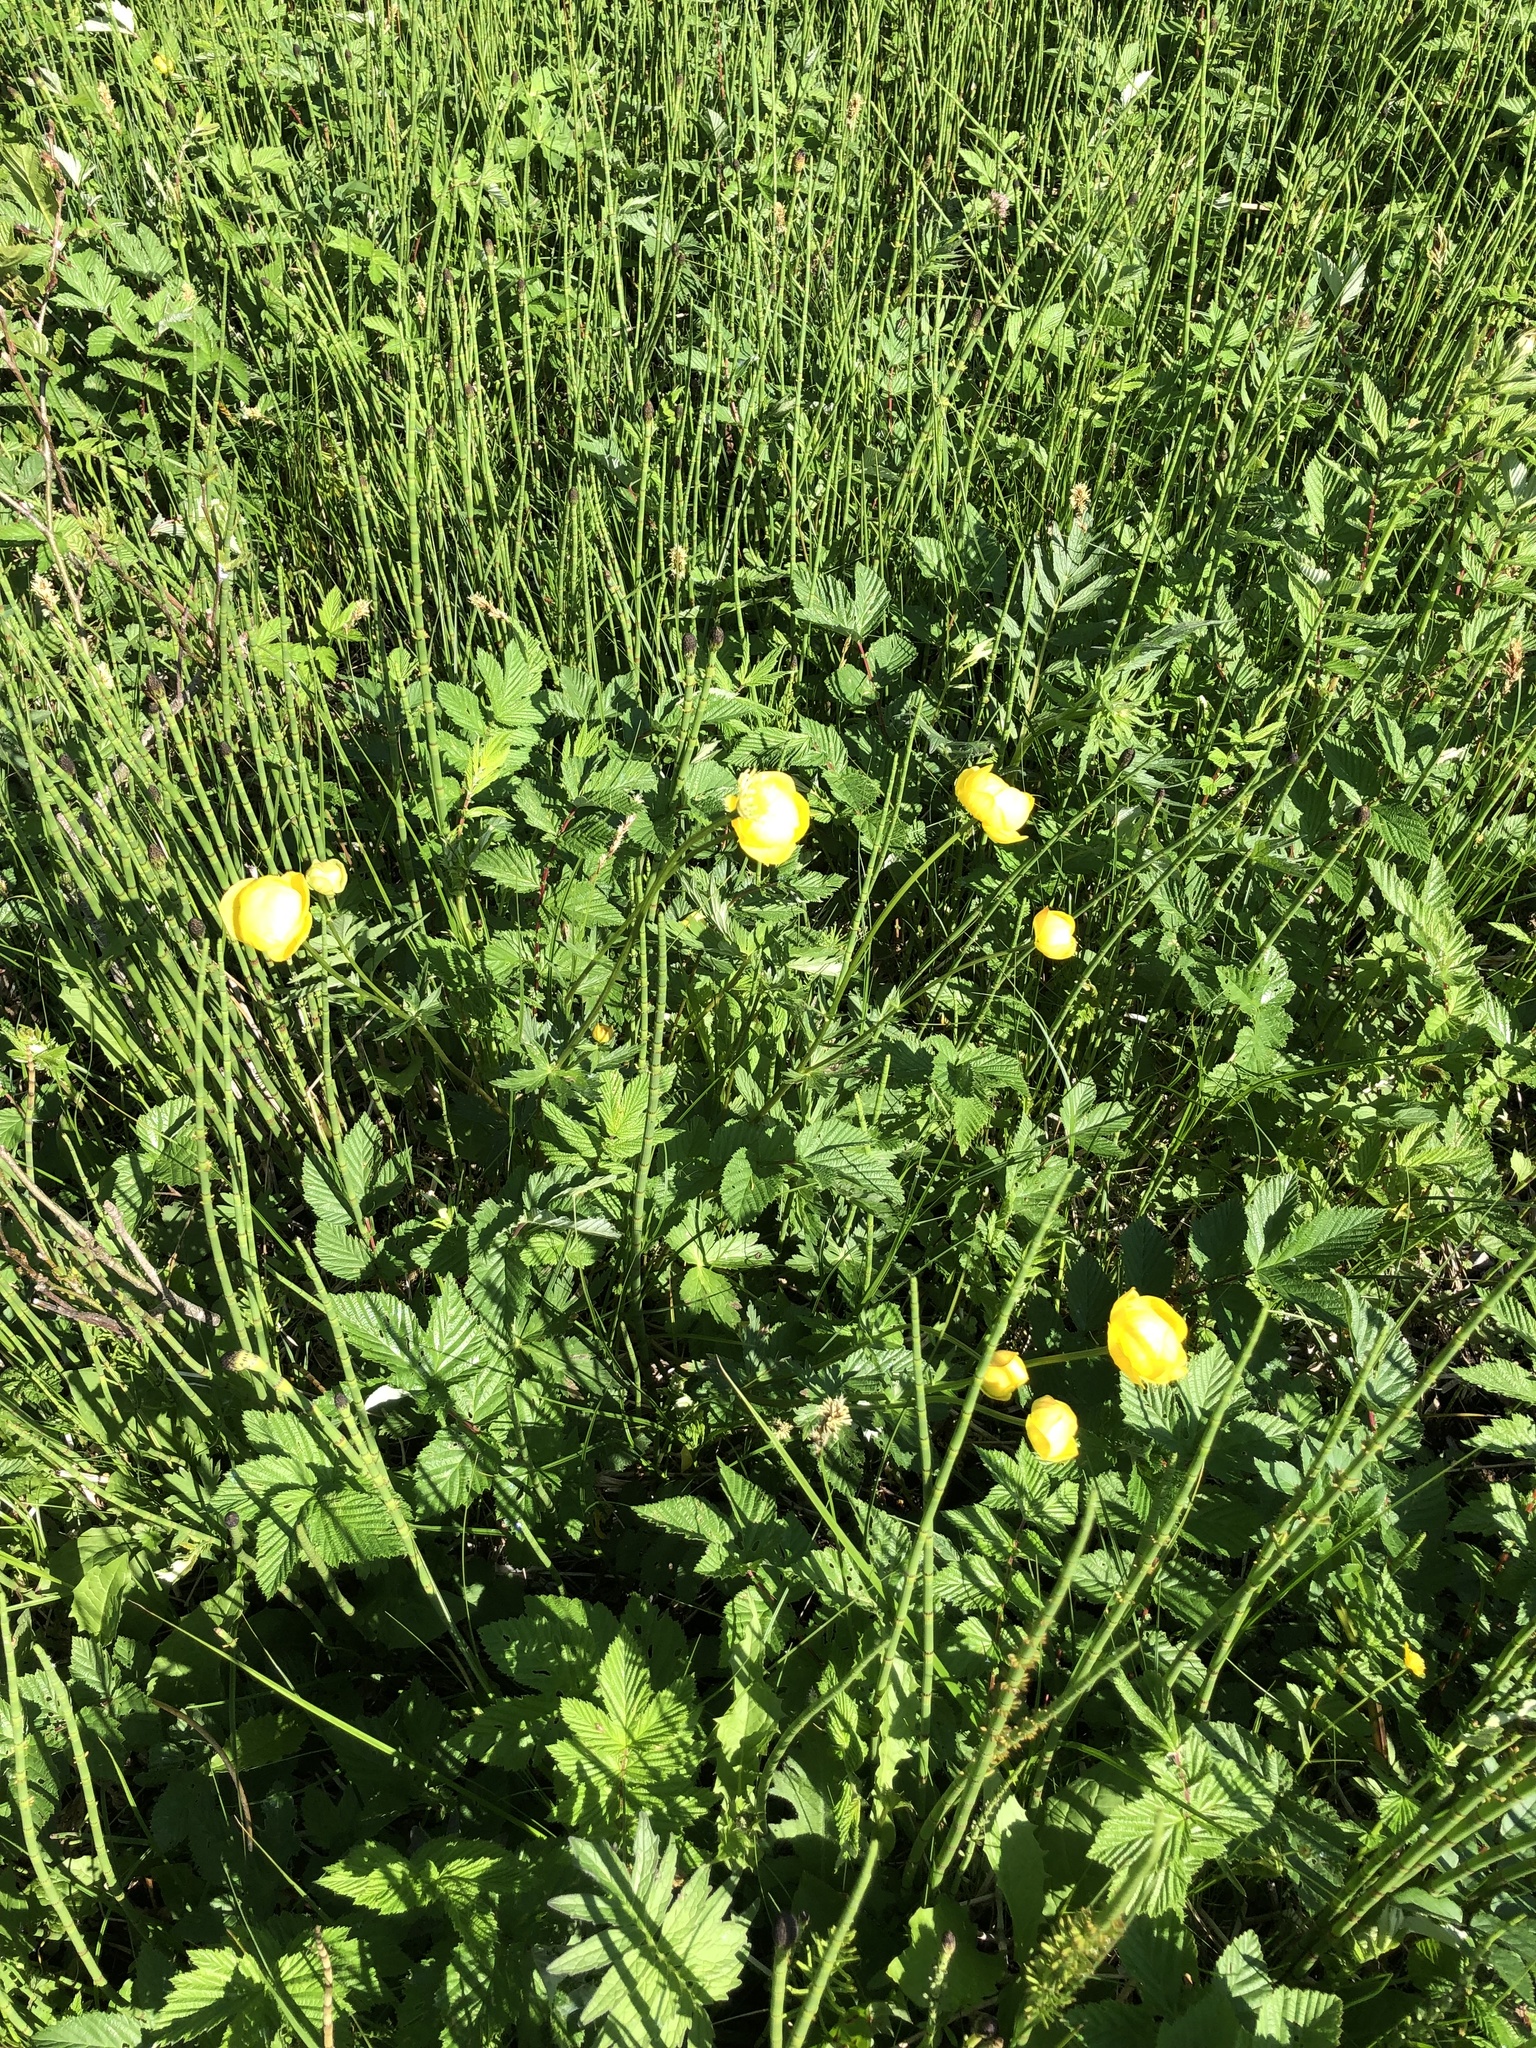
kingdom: Plantae
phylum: Tracheophyta
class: Magnoliopsida
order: Ranunculales
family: Ranunculaceae
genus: Trollius
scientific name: Trollius europaeus
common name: European globeflower
